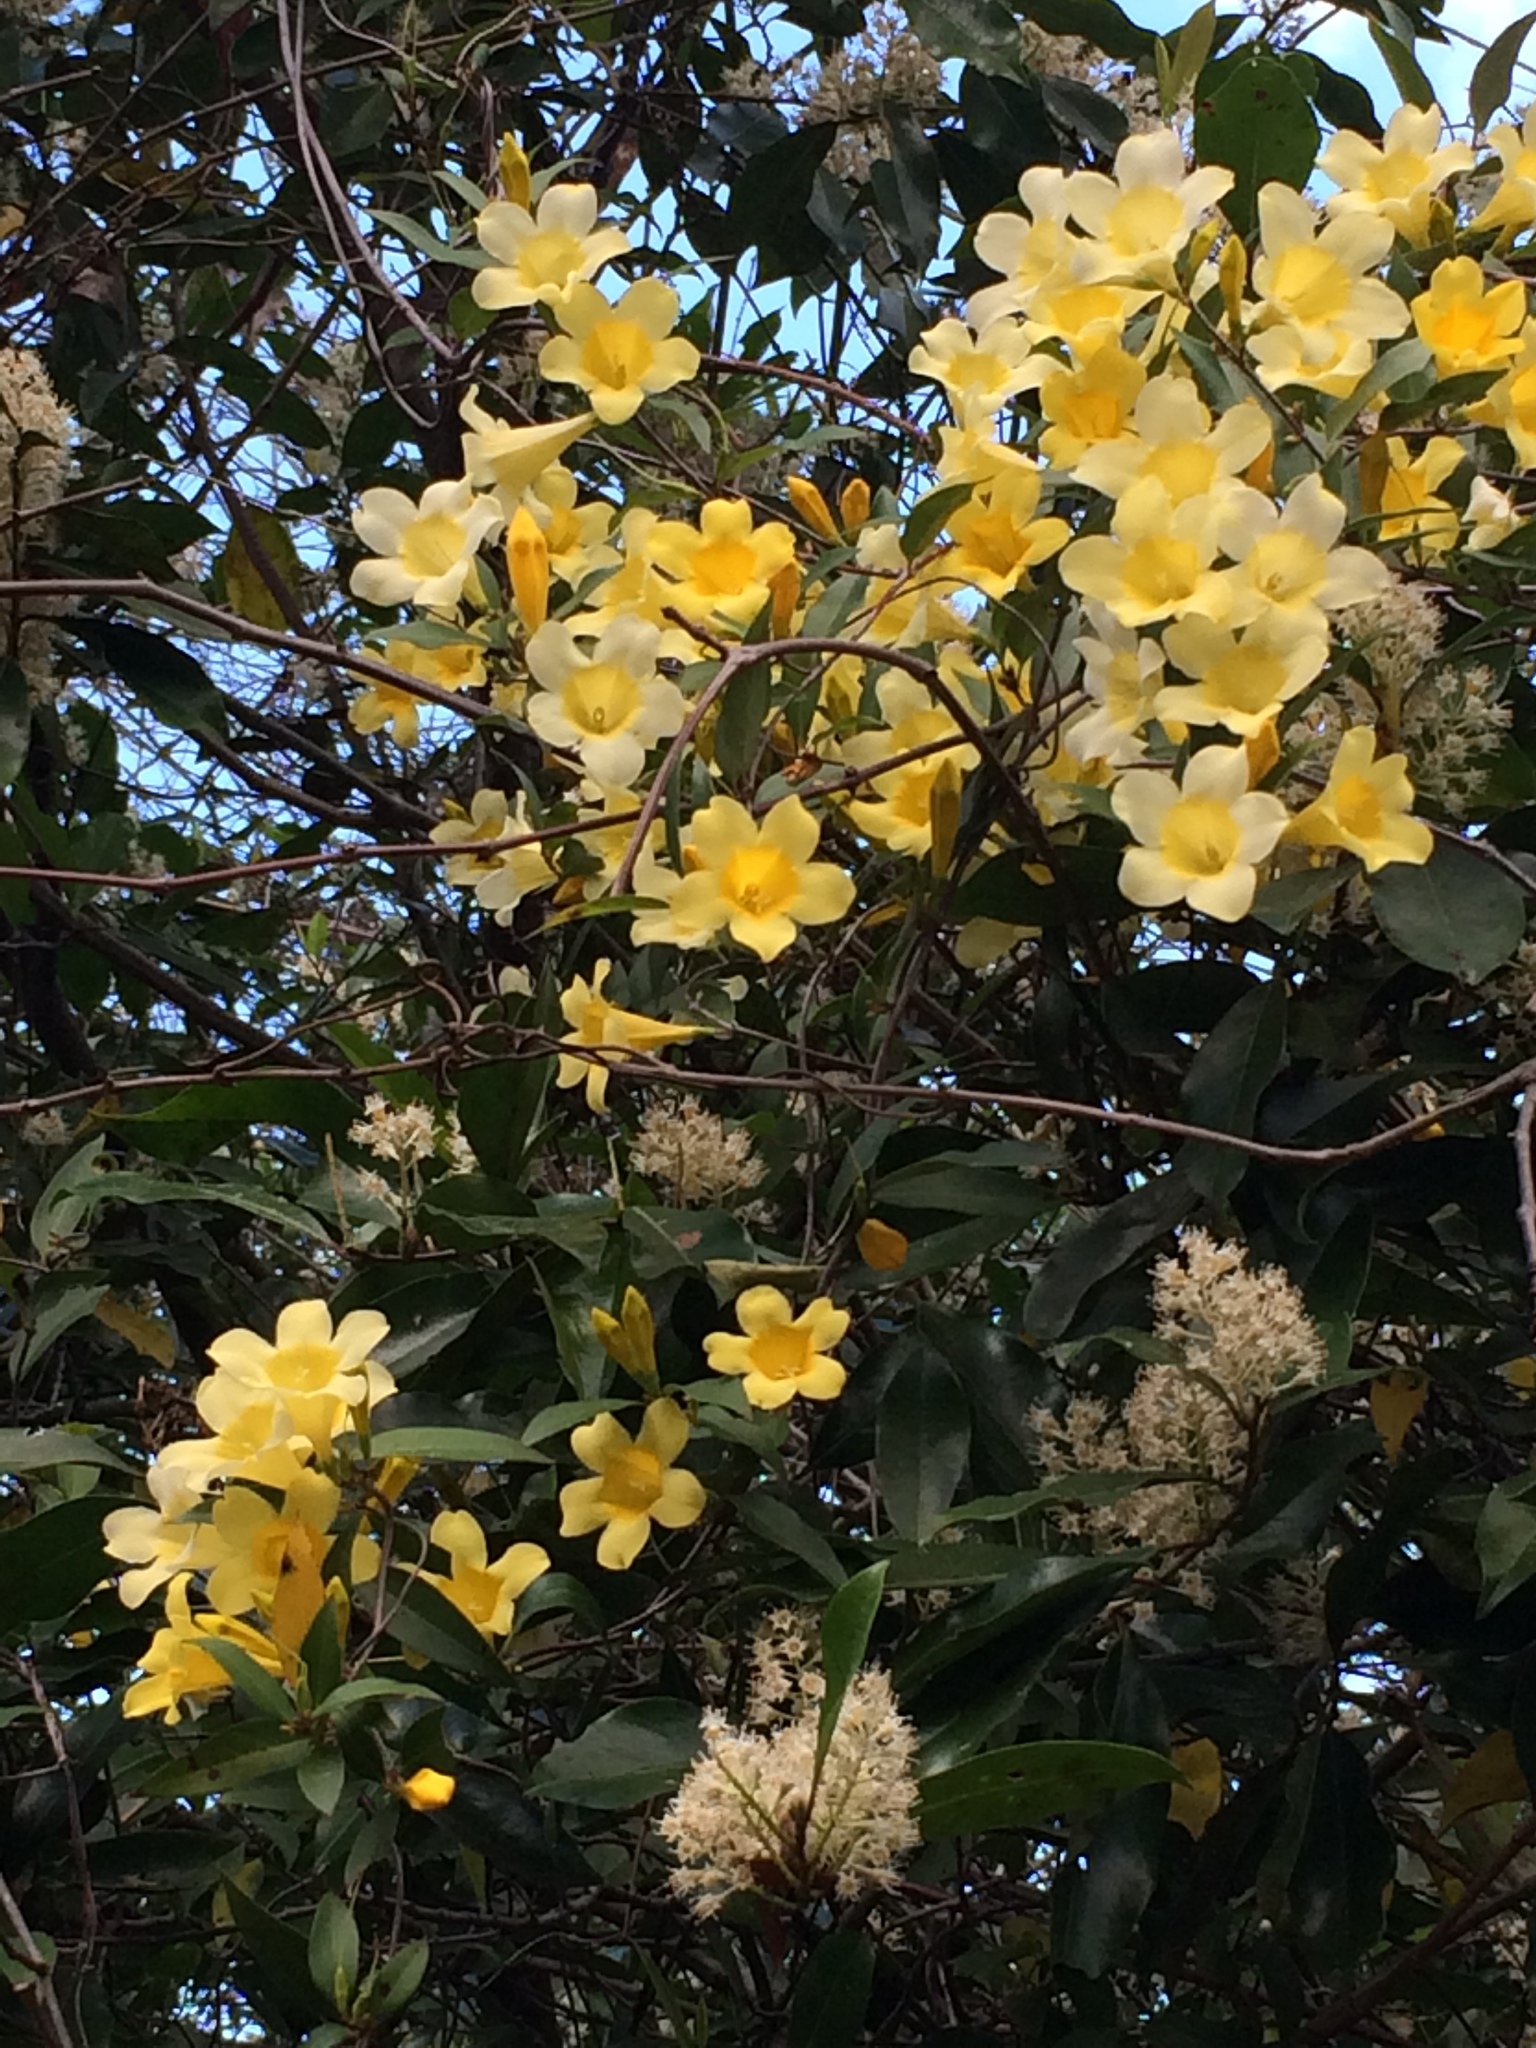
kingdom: Plantae
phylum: Tracheophyta
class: Magnoliopsida
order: Gentianales
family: Gelsemiaceae
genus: Gelsemium
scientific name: Gelsemium sempervirens
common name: Carolina-jasmine
